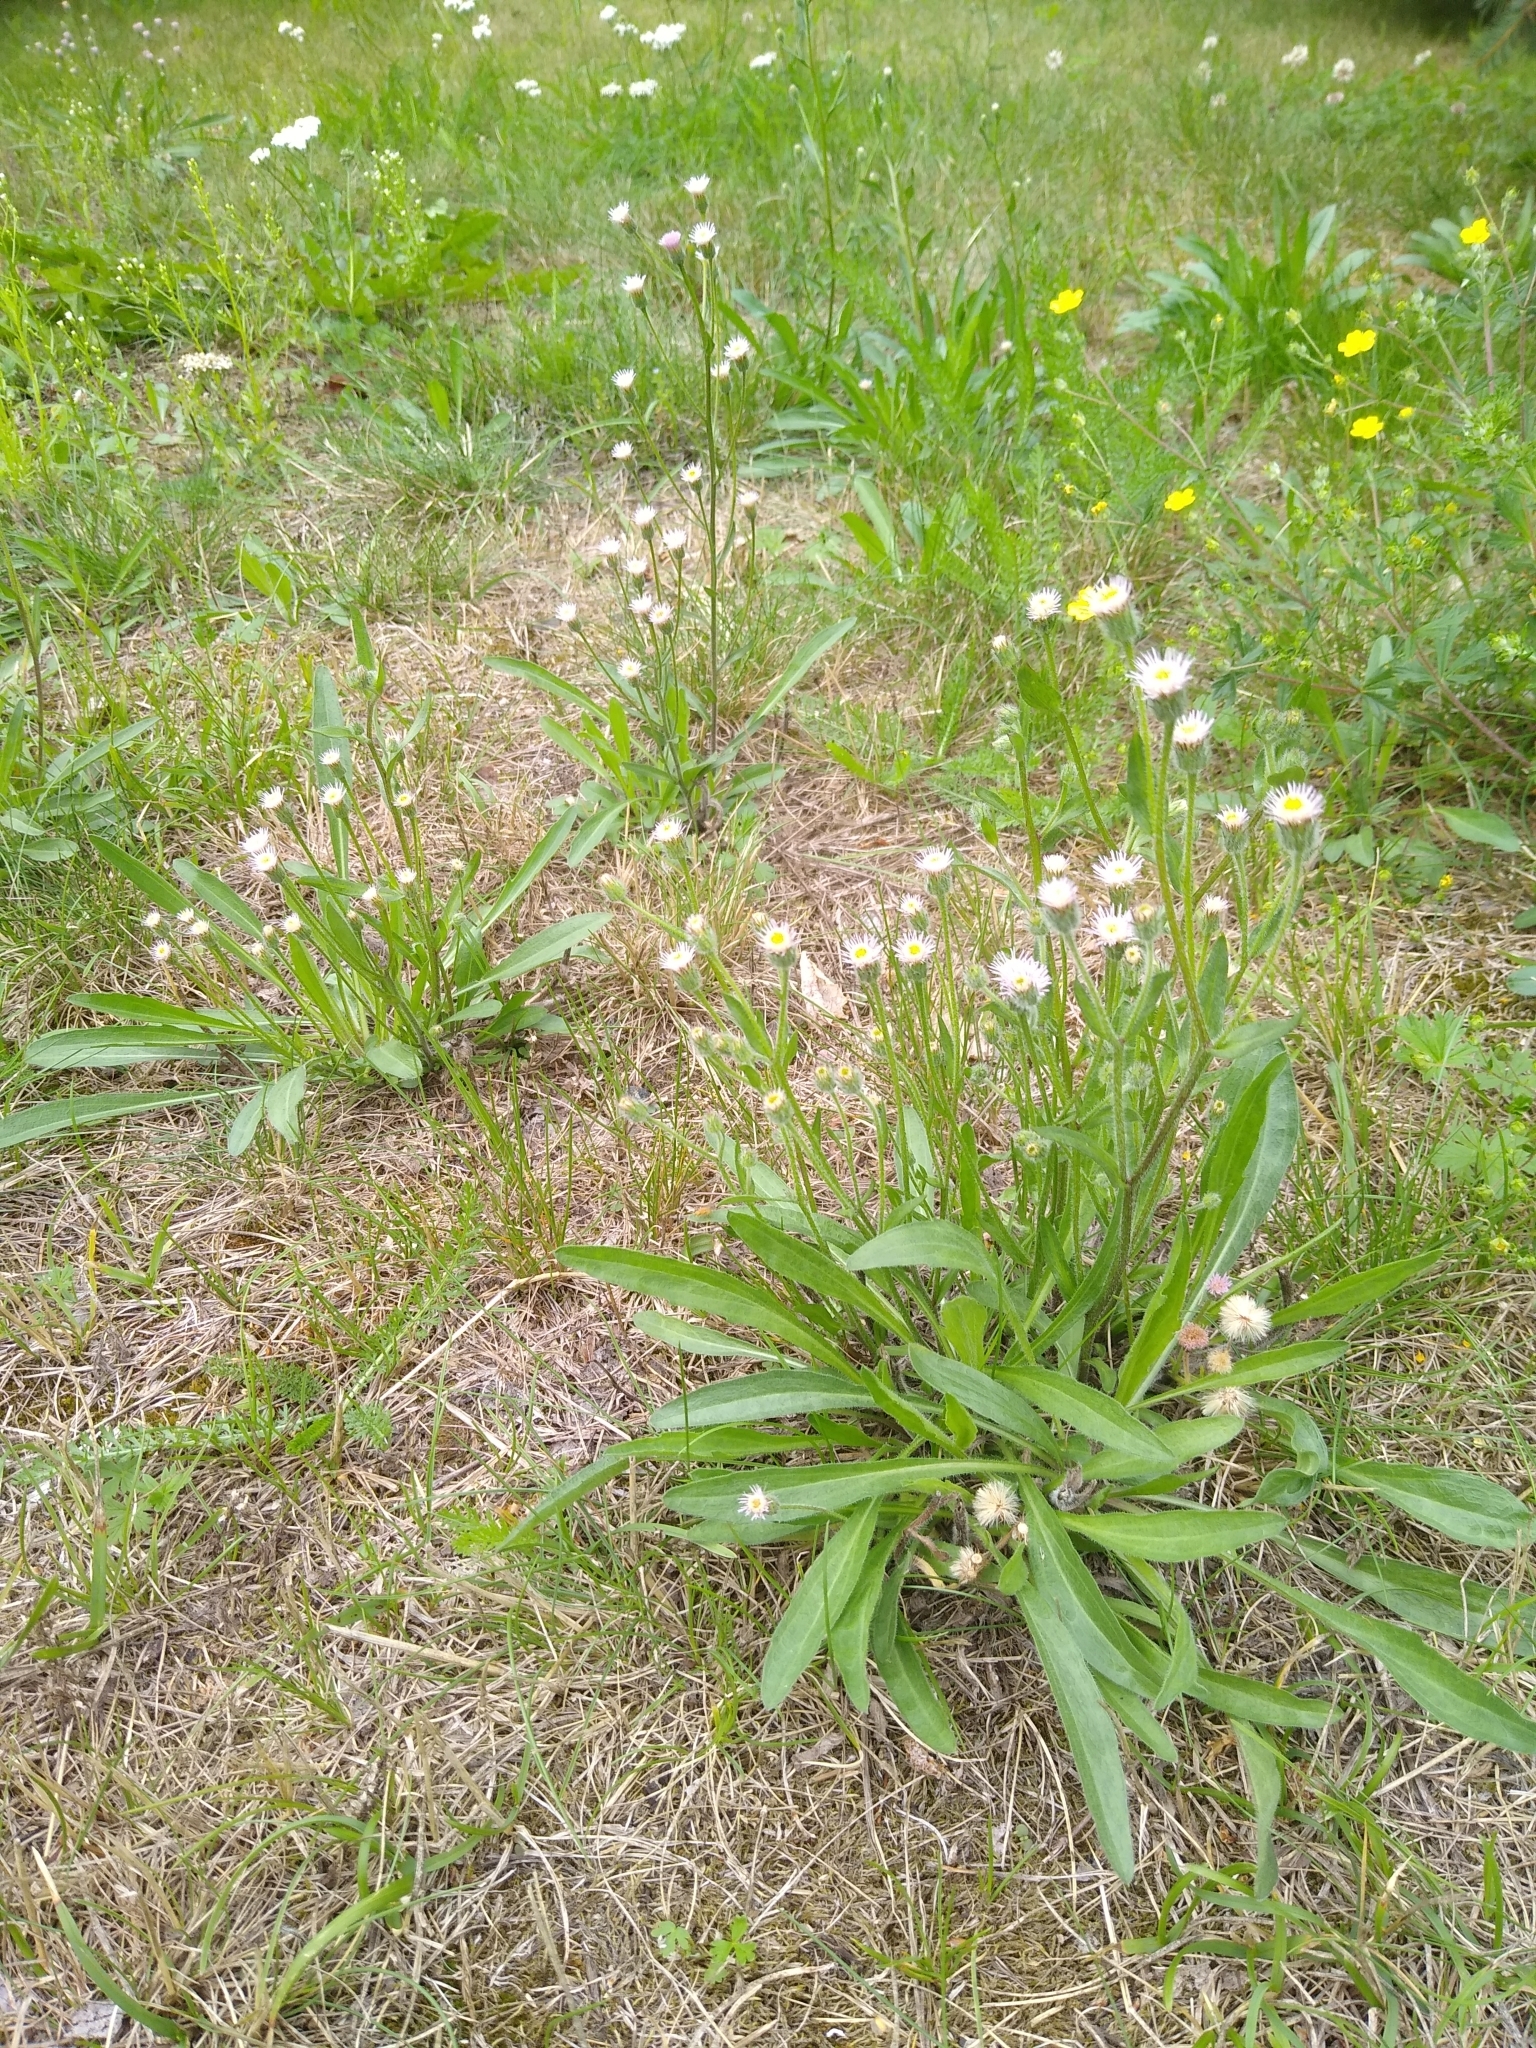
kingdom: Plantae
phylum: Tracheophyta
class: Magnoliopsida
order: Asterales
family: Asteraceae
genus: Erigeron
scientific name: Erigeron acris
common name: Blue fleabane
